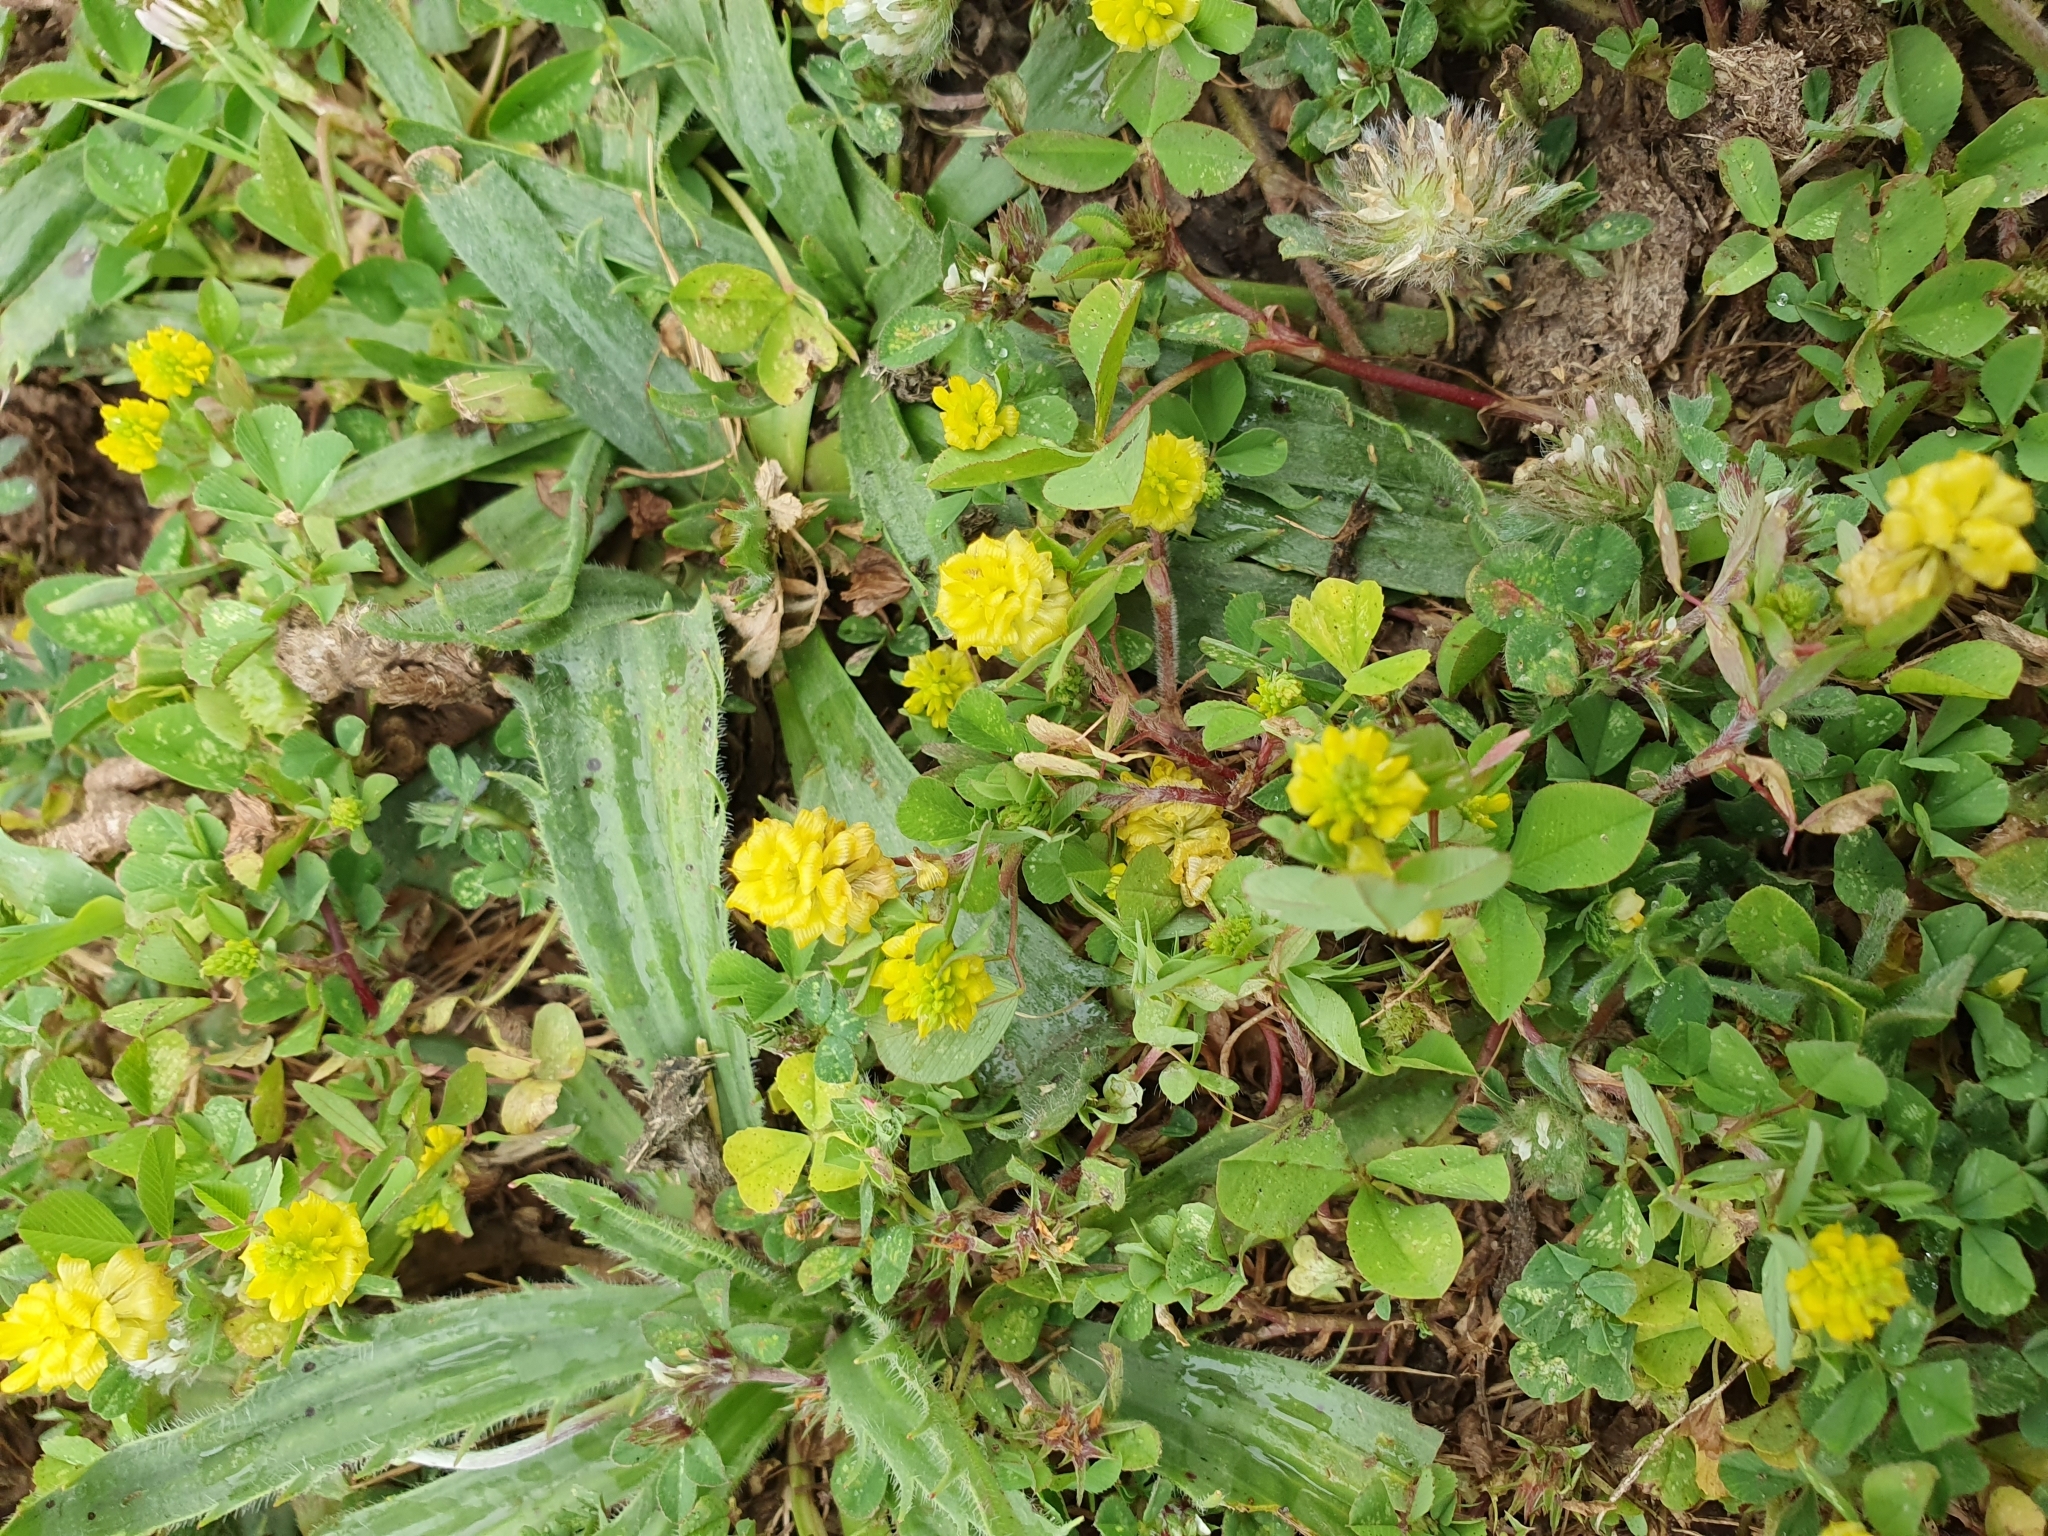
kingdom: Plantae
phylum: Tracheophyta
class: Magnoliopsida
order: Fabales
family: Fabaceae
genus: Trifolium
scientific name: Trifolium campestre
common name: Field clover
